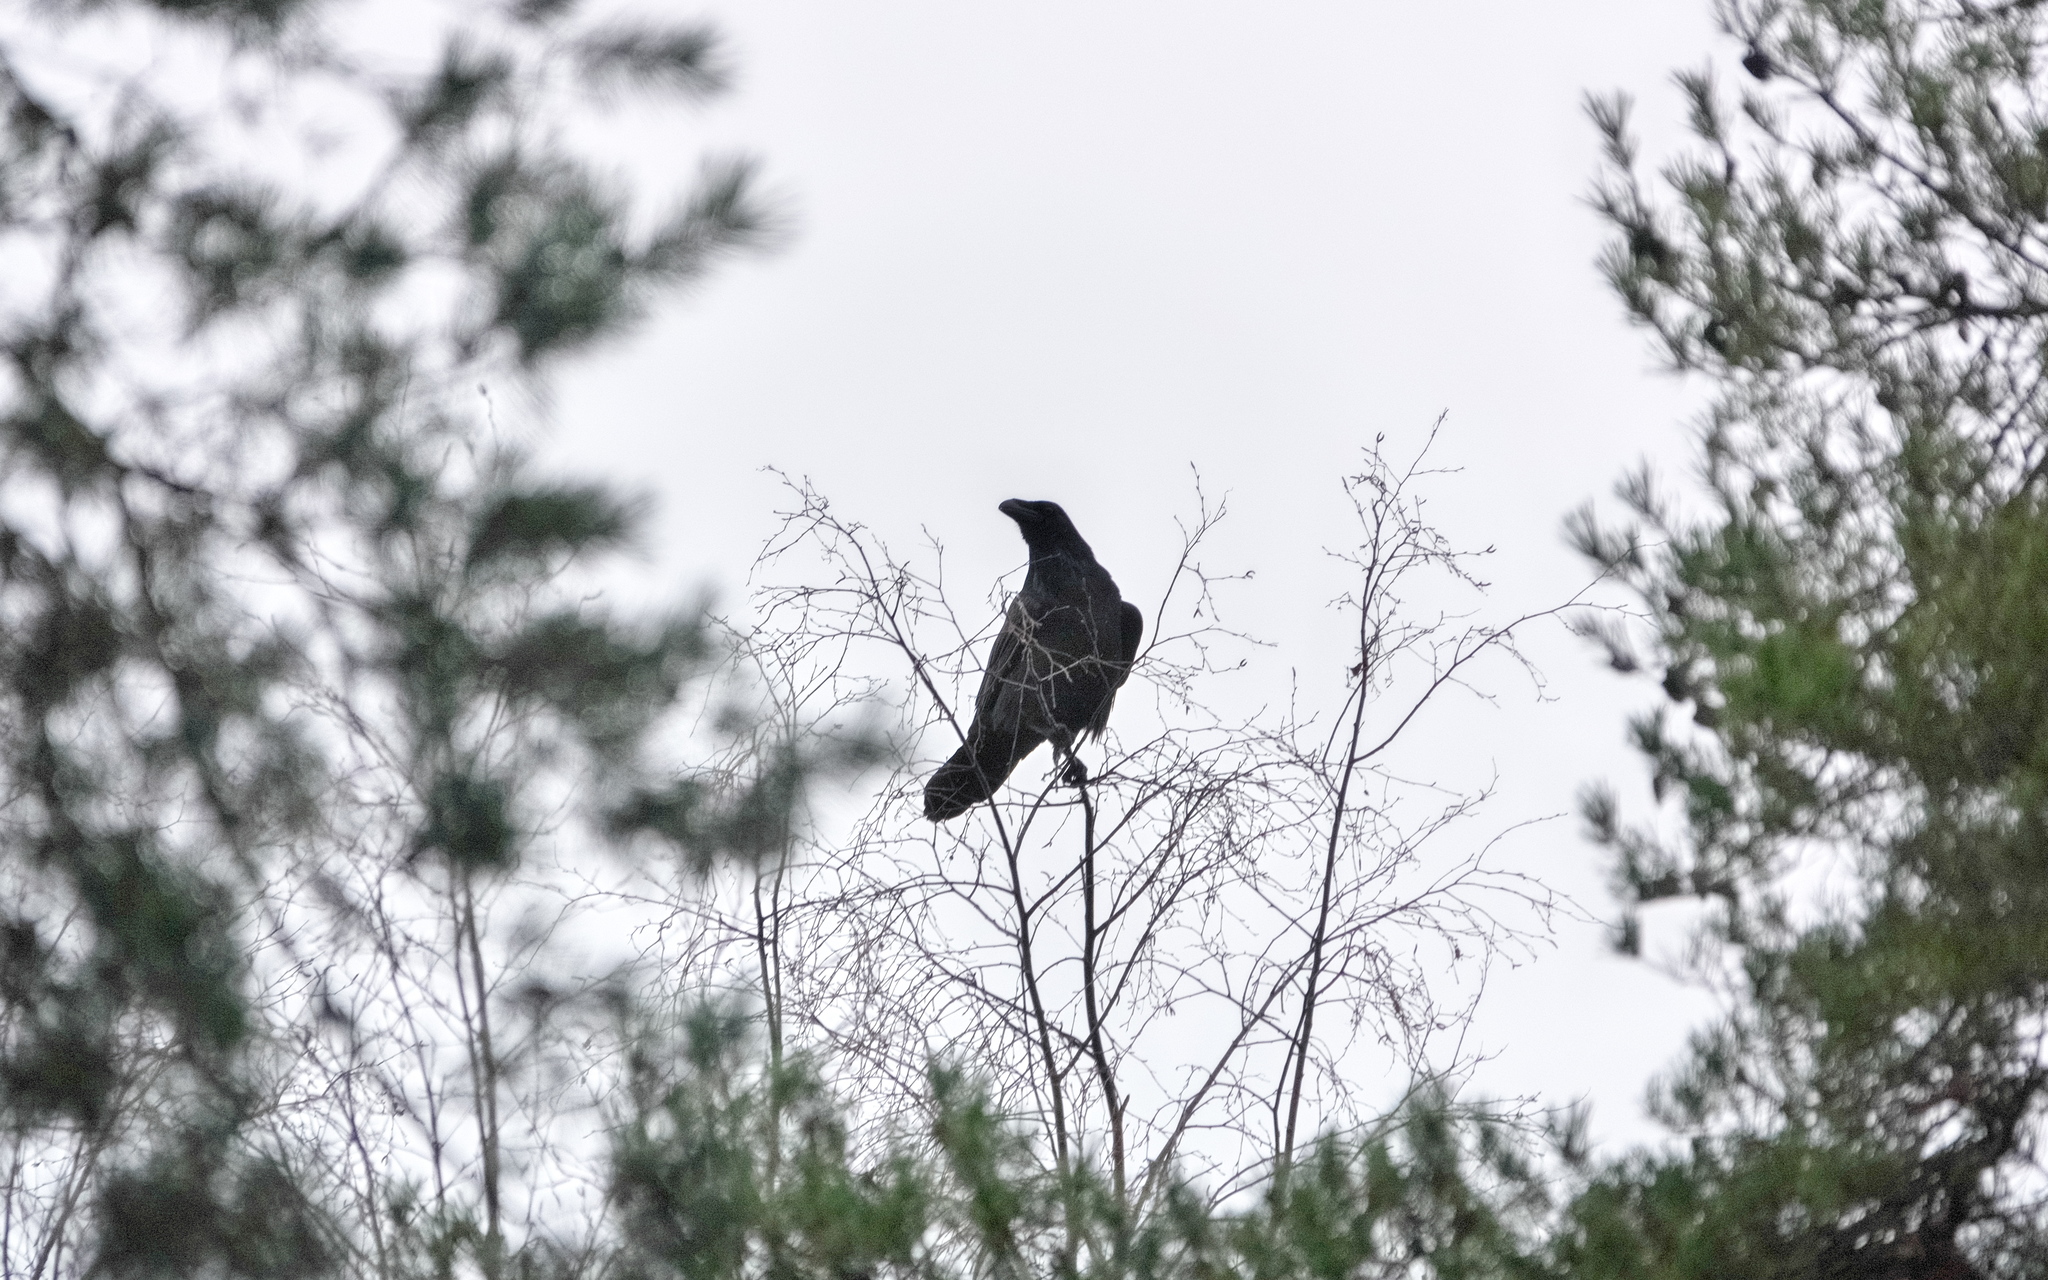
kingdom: Animalia
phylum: Chordata
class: Aves
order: Passeriformes
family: Corvidae
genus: Corvus
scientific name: Corvus corax
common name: Common raven
